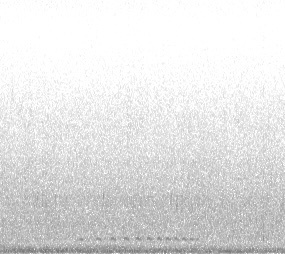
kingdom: Animalia
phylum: Chordata
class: Aves
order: Strigiformes
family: Strigidae
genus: Megascops
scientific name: Megascops kennicottii
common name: Western screech-owl
